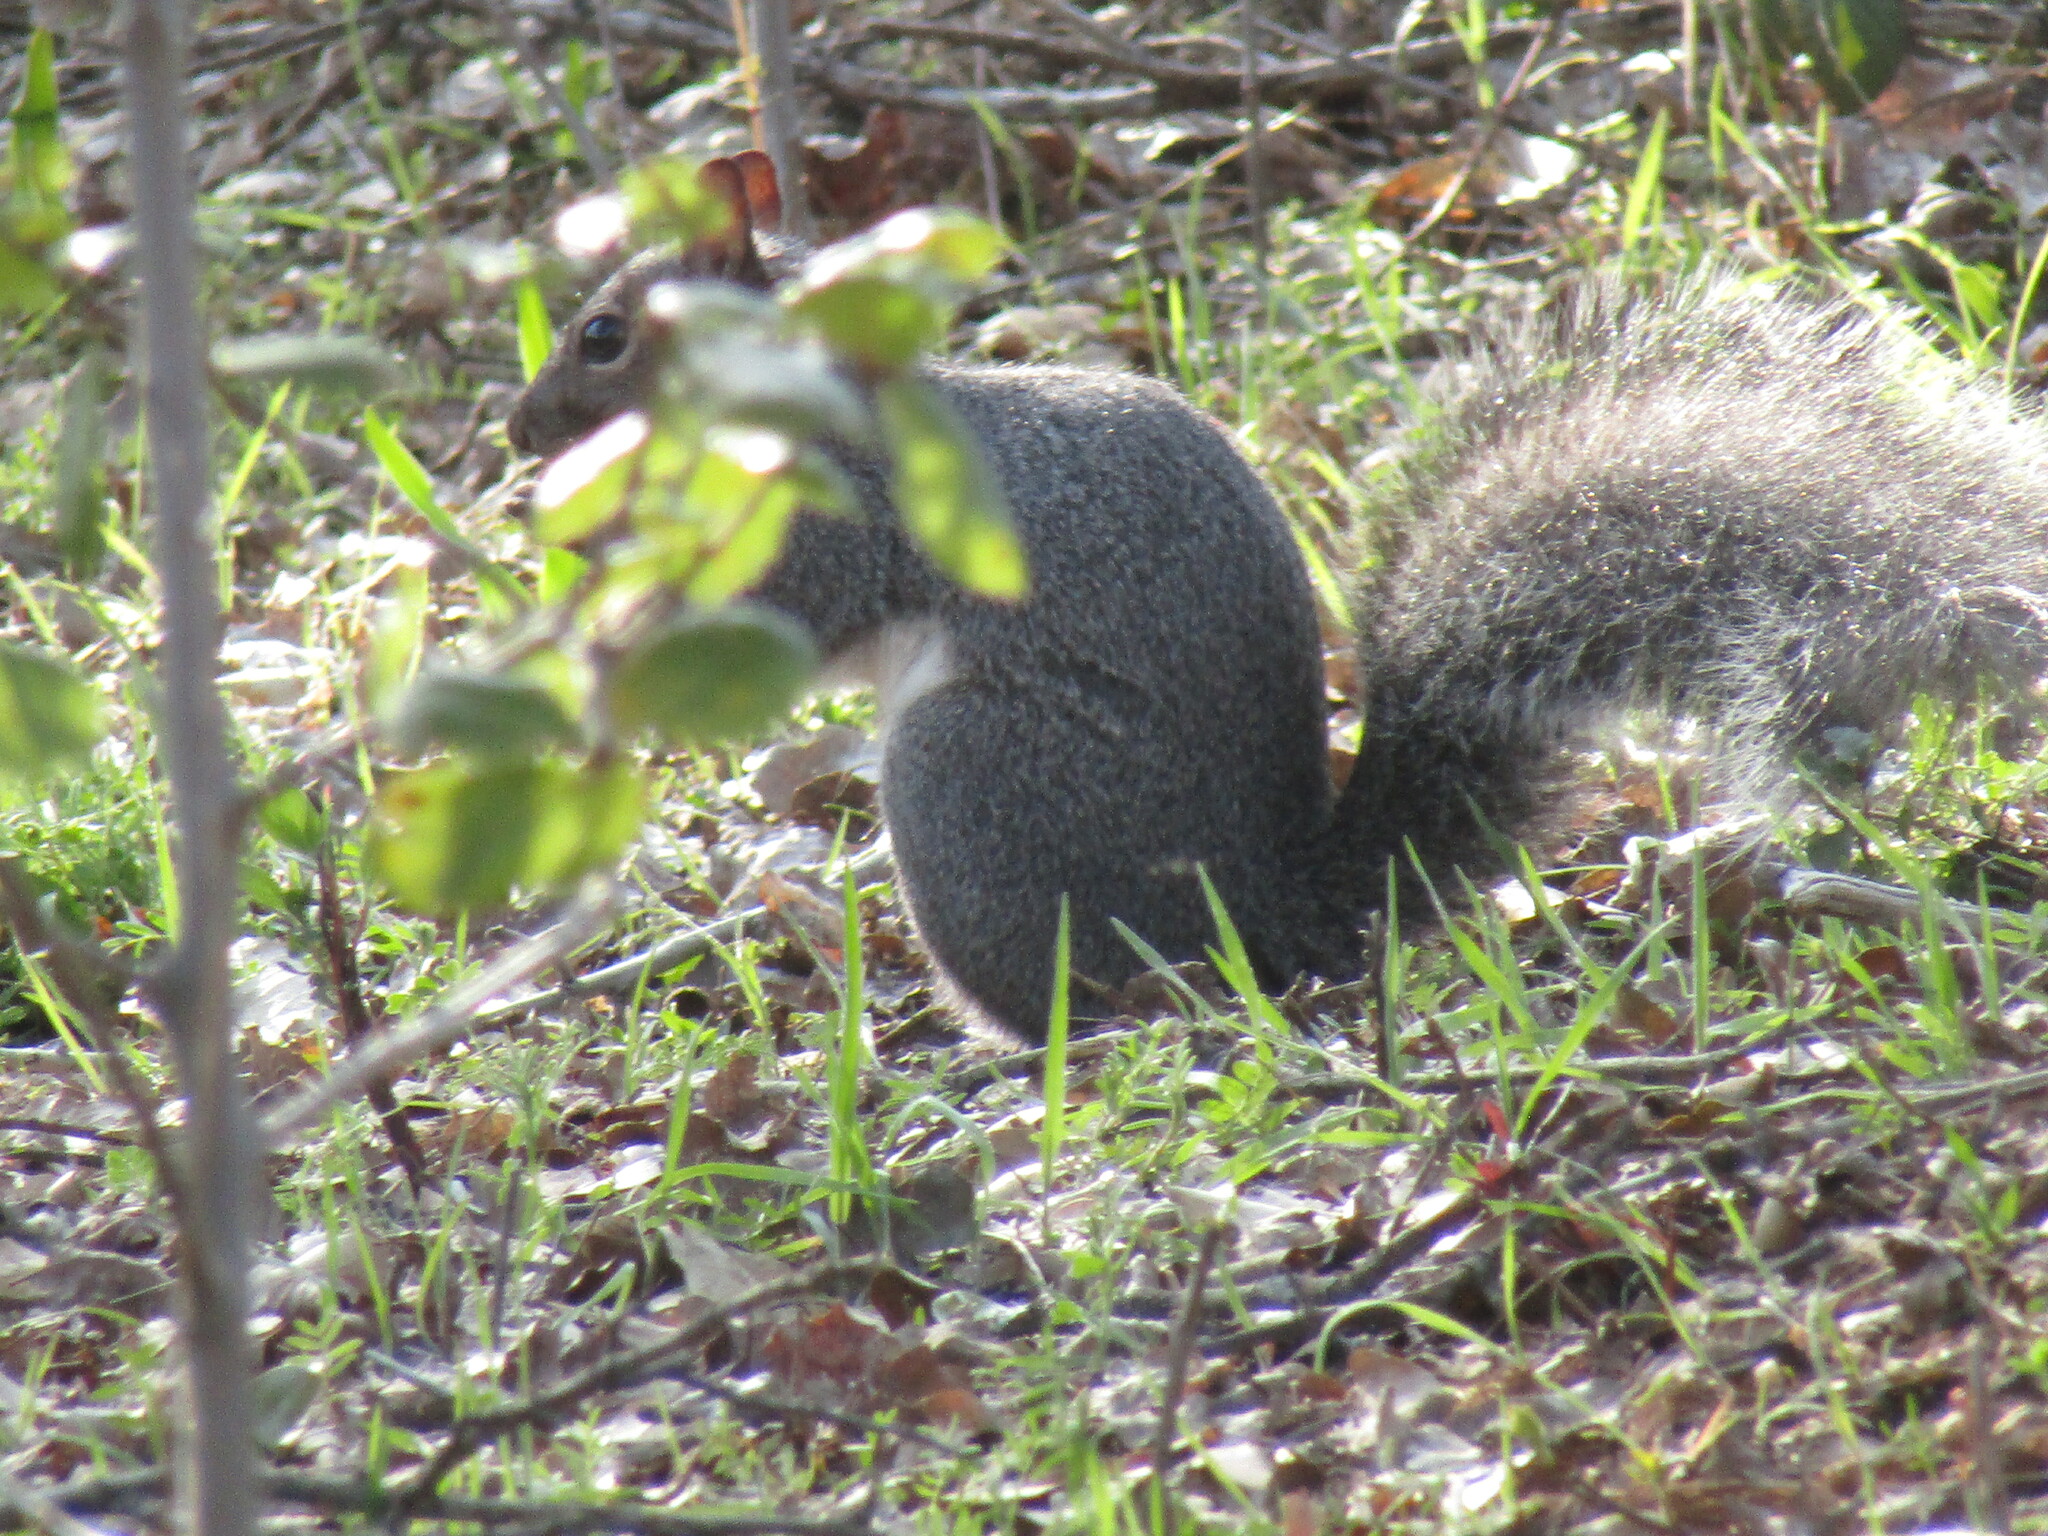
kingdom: Animalia
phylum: Chordata
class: Mammalia
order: Rodentia
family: Sciuridae
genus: Sciurus
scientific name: Sciurus griseus
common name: Western gray squirrel
